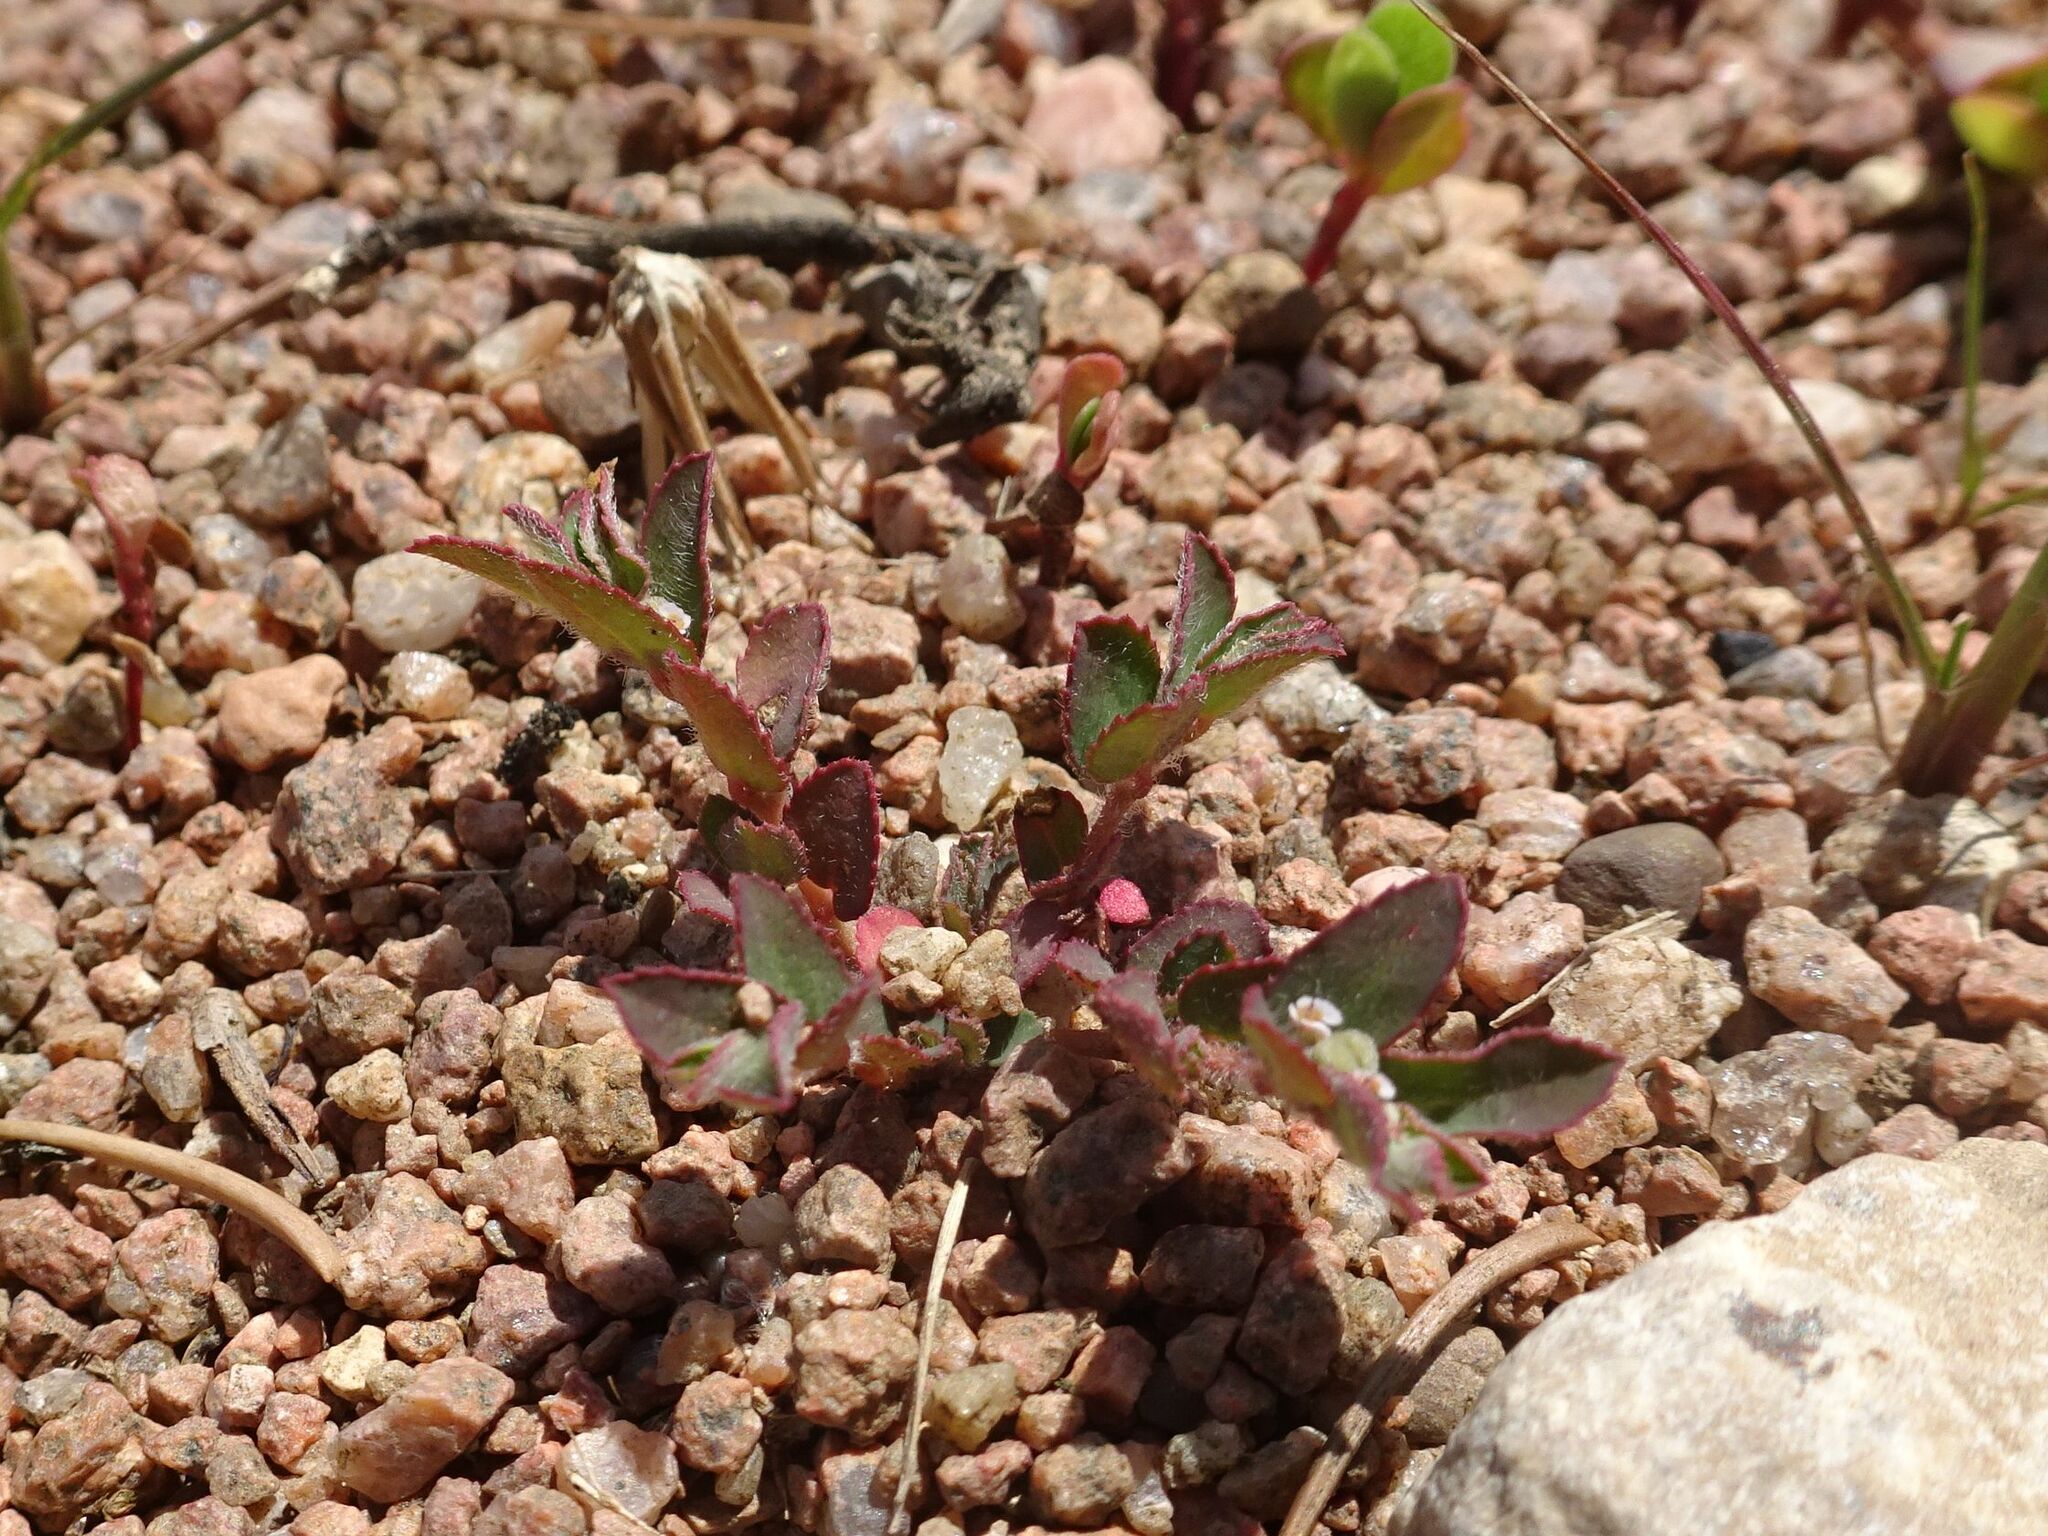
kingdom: Plantae
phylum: Tracheophyta
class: Magnoliopsida
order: Malpighiales
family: Euphorbiaceae
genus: Euphorbia
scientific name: Euphorbia maculata
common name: Spotted spurge
